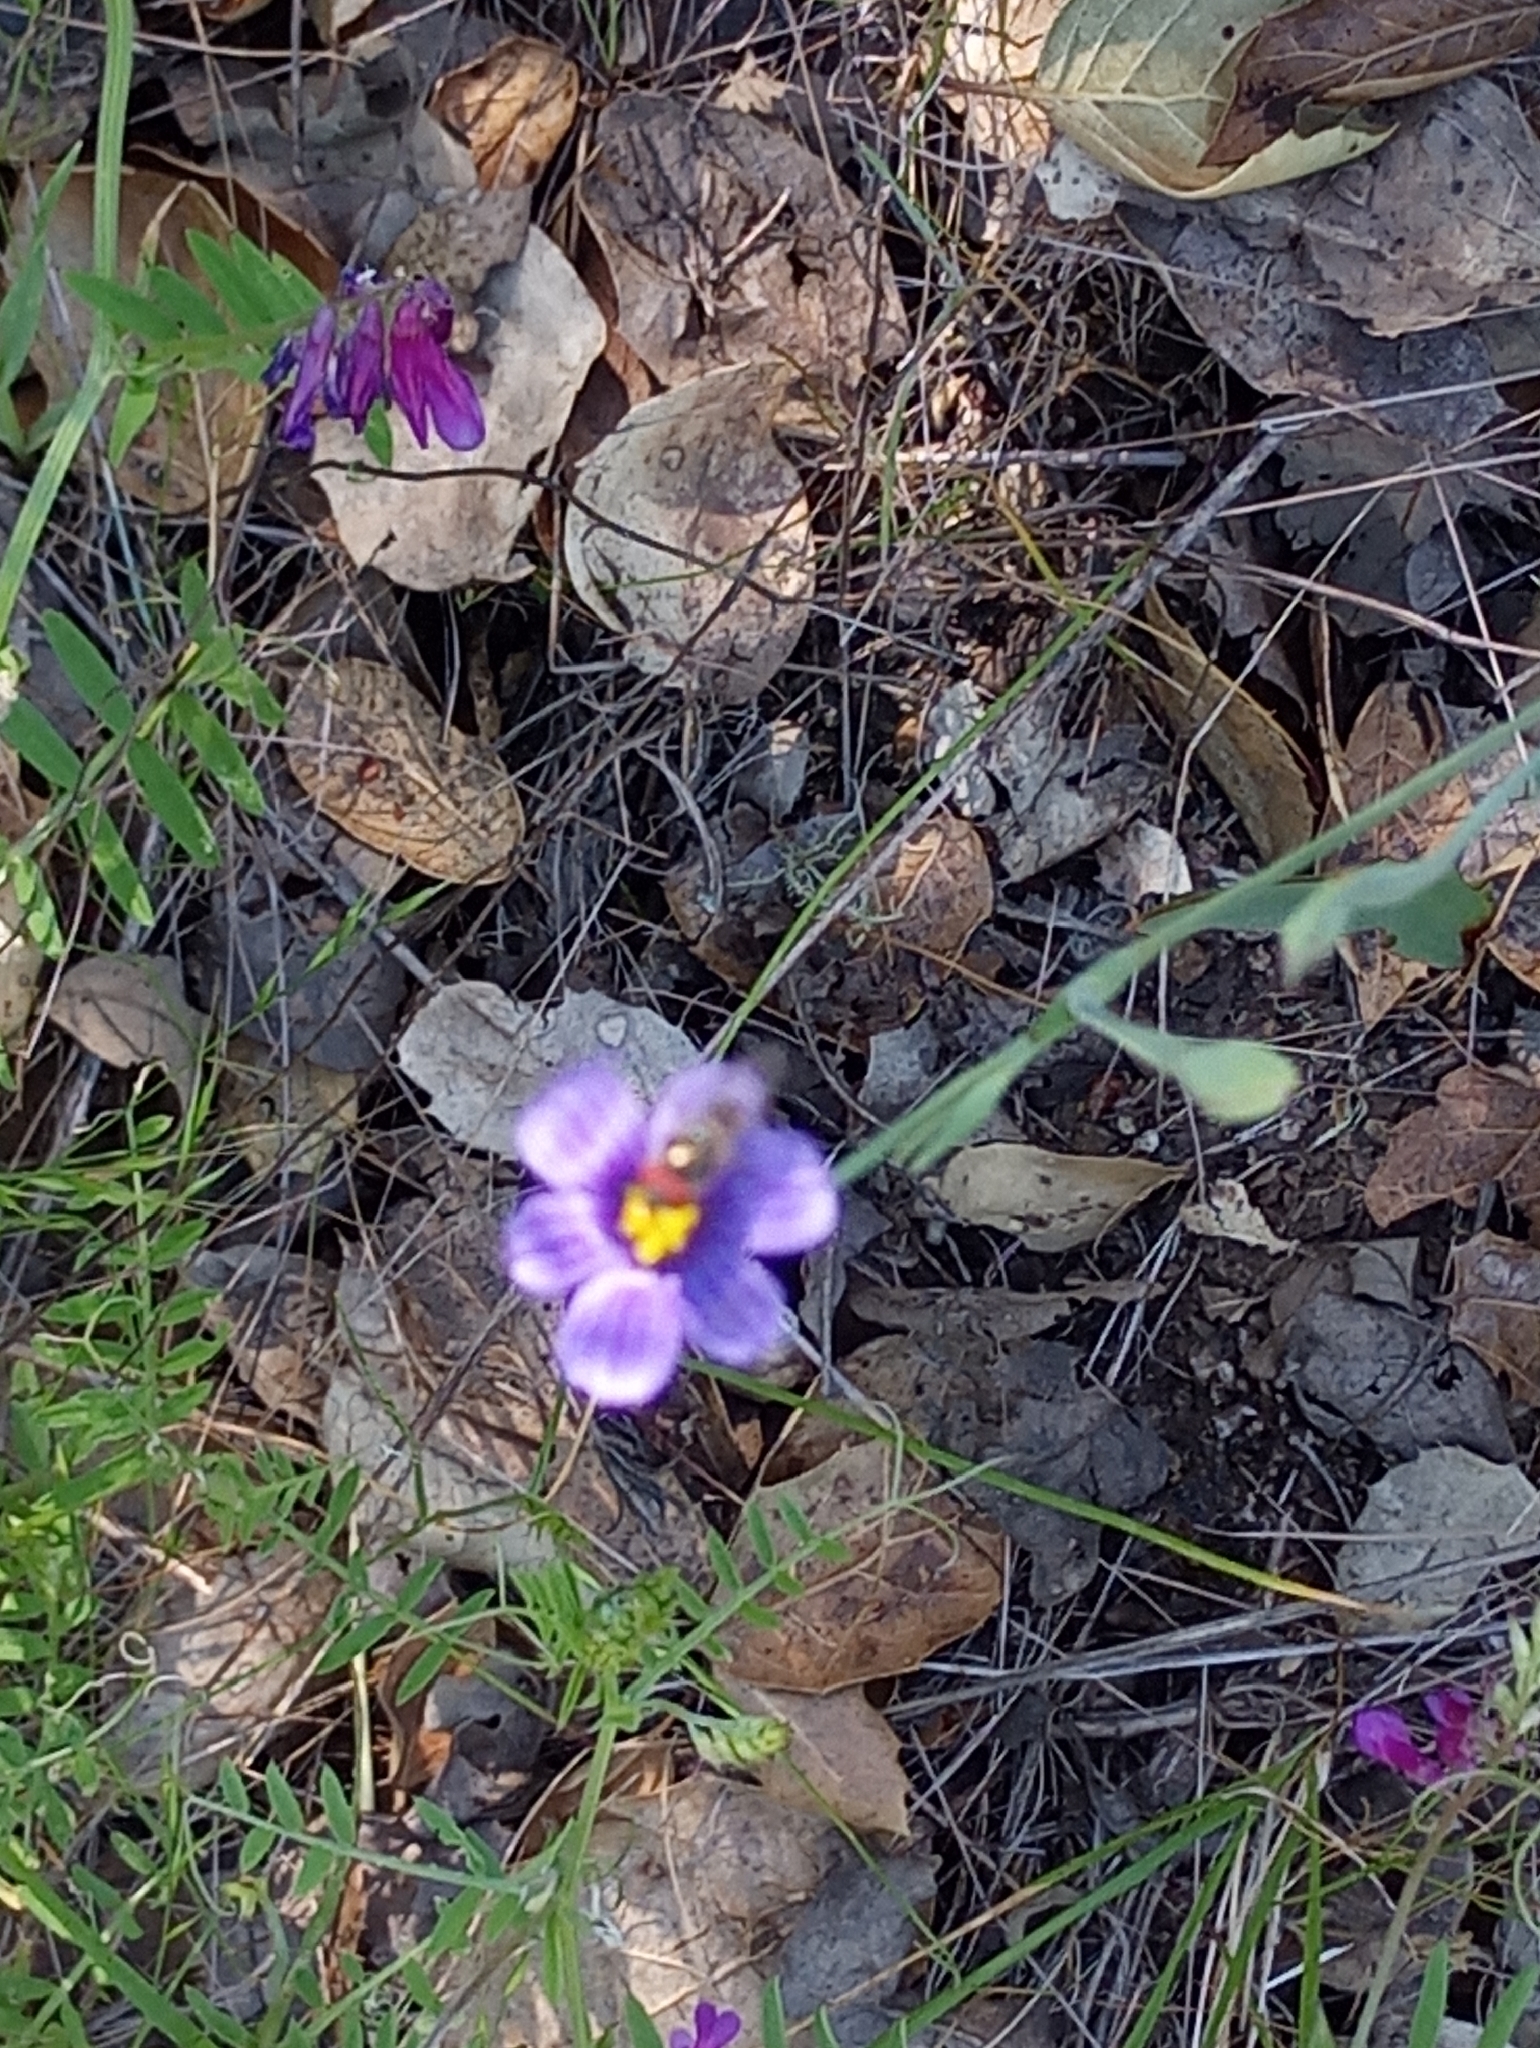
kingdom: Plantae
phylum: Tracheophyta
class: Liliopsida
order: Asparagales
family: Iridaceae
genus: Sisyrinchium
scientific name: Sisyrinchium bellum
